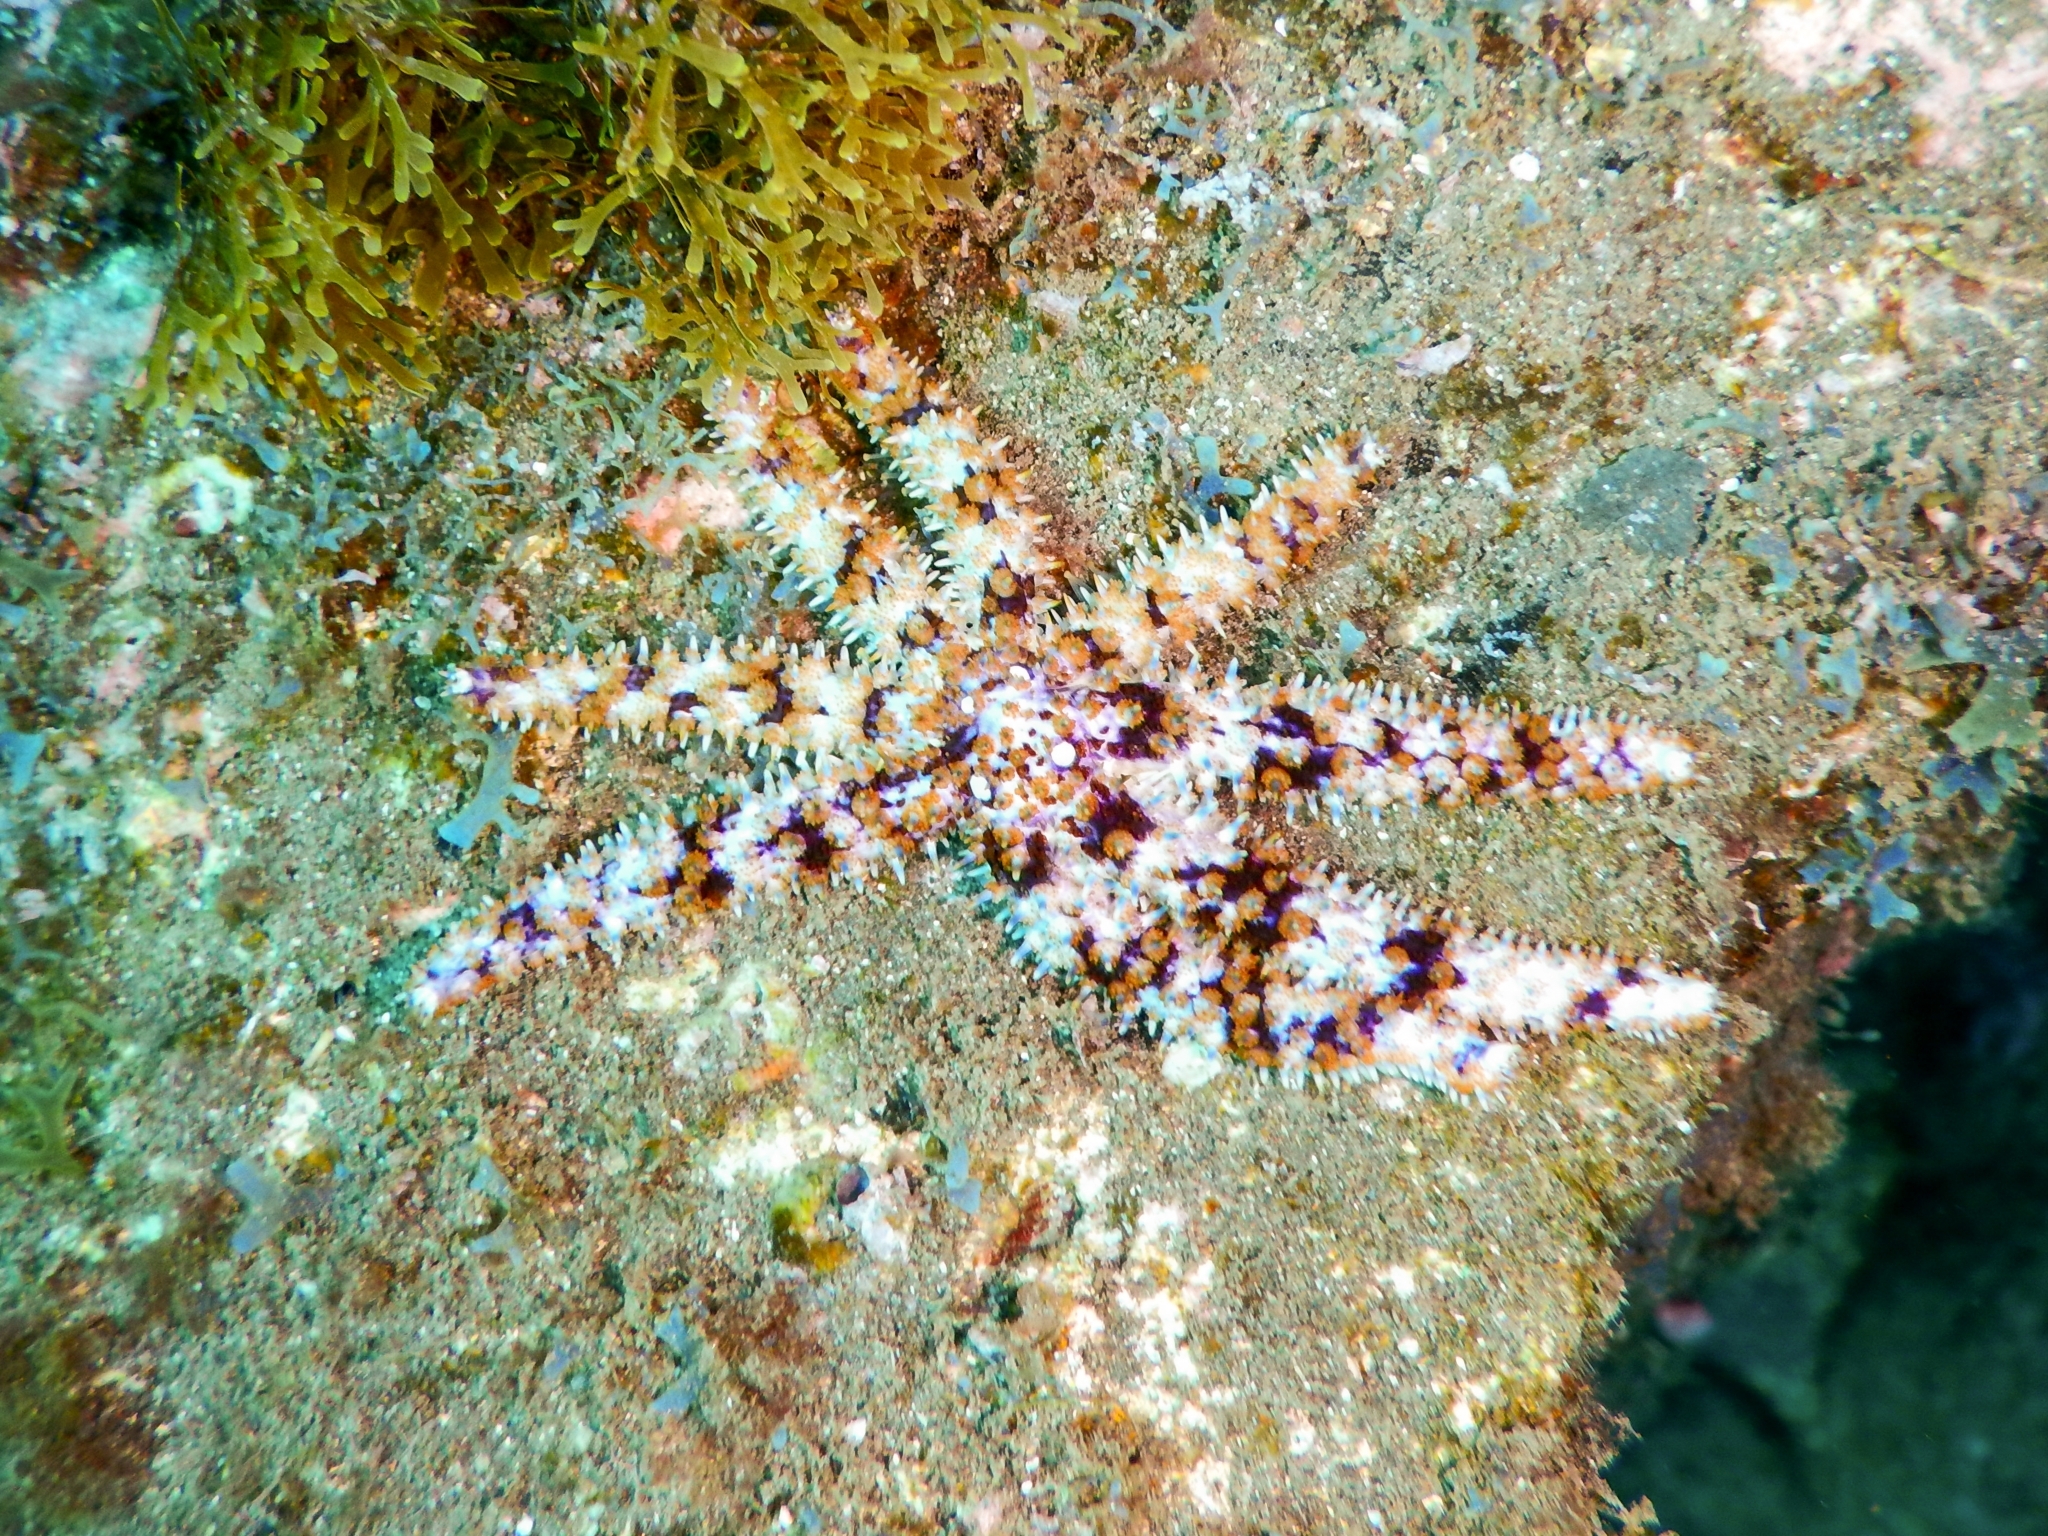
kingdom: Animalia
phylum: Echinodermata
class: Asteroidea
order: Forcipulatida
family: Asteriidae
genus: Coscinasterias
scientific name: Coscinasterias tenuispina
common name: Blue spiny starfish
